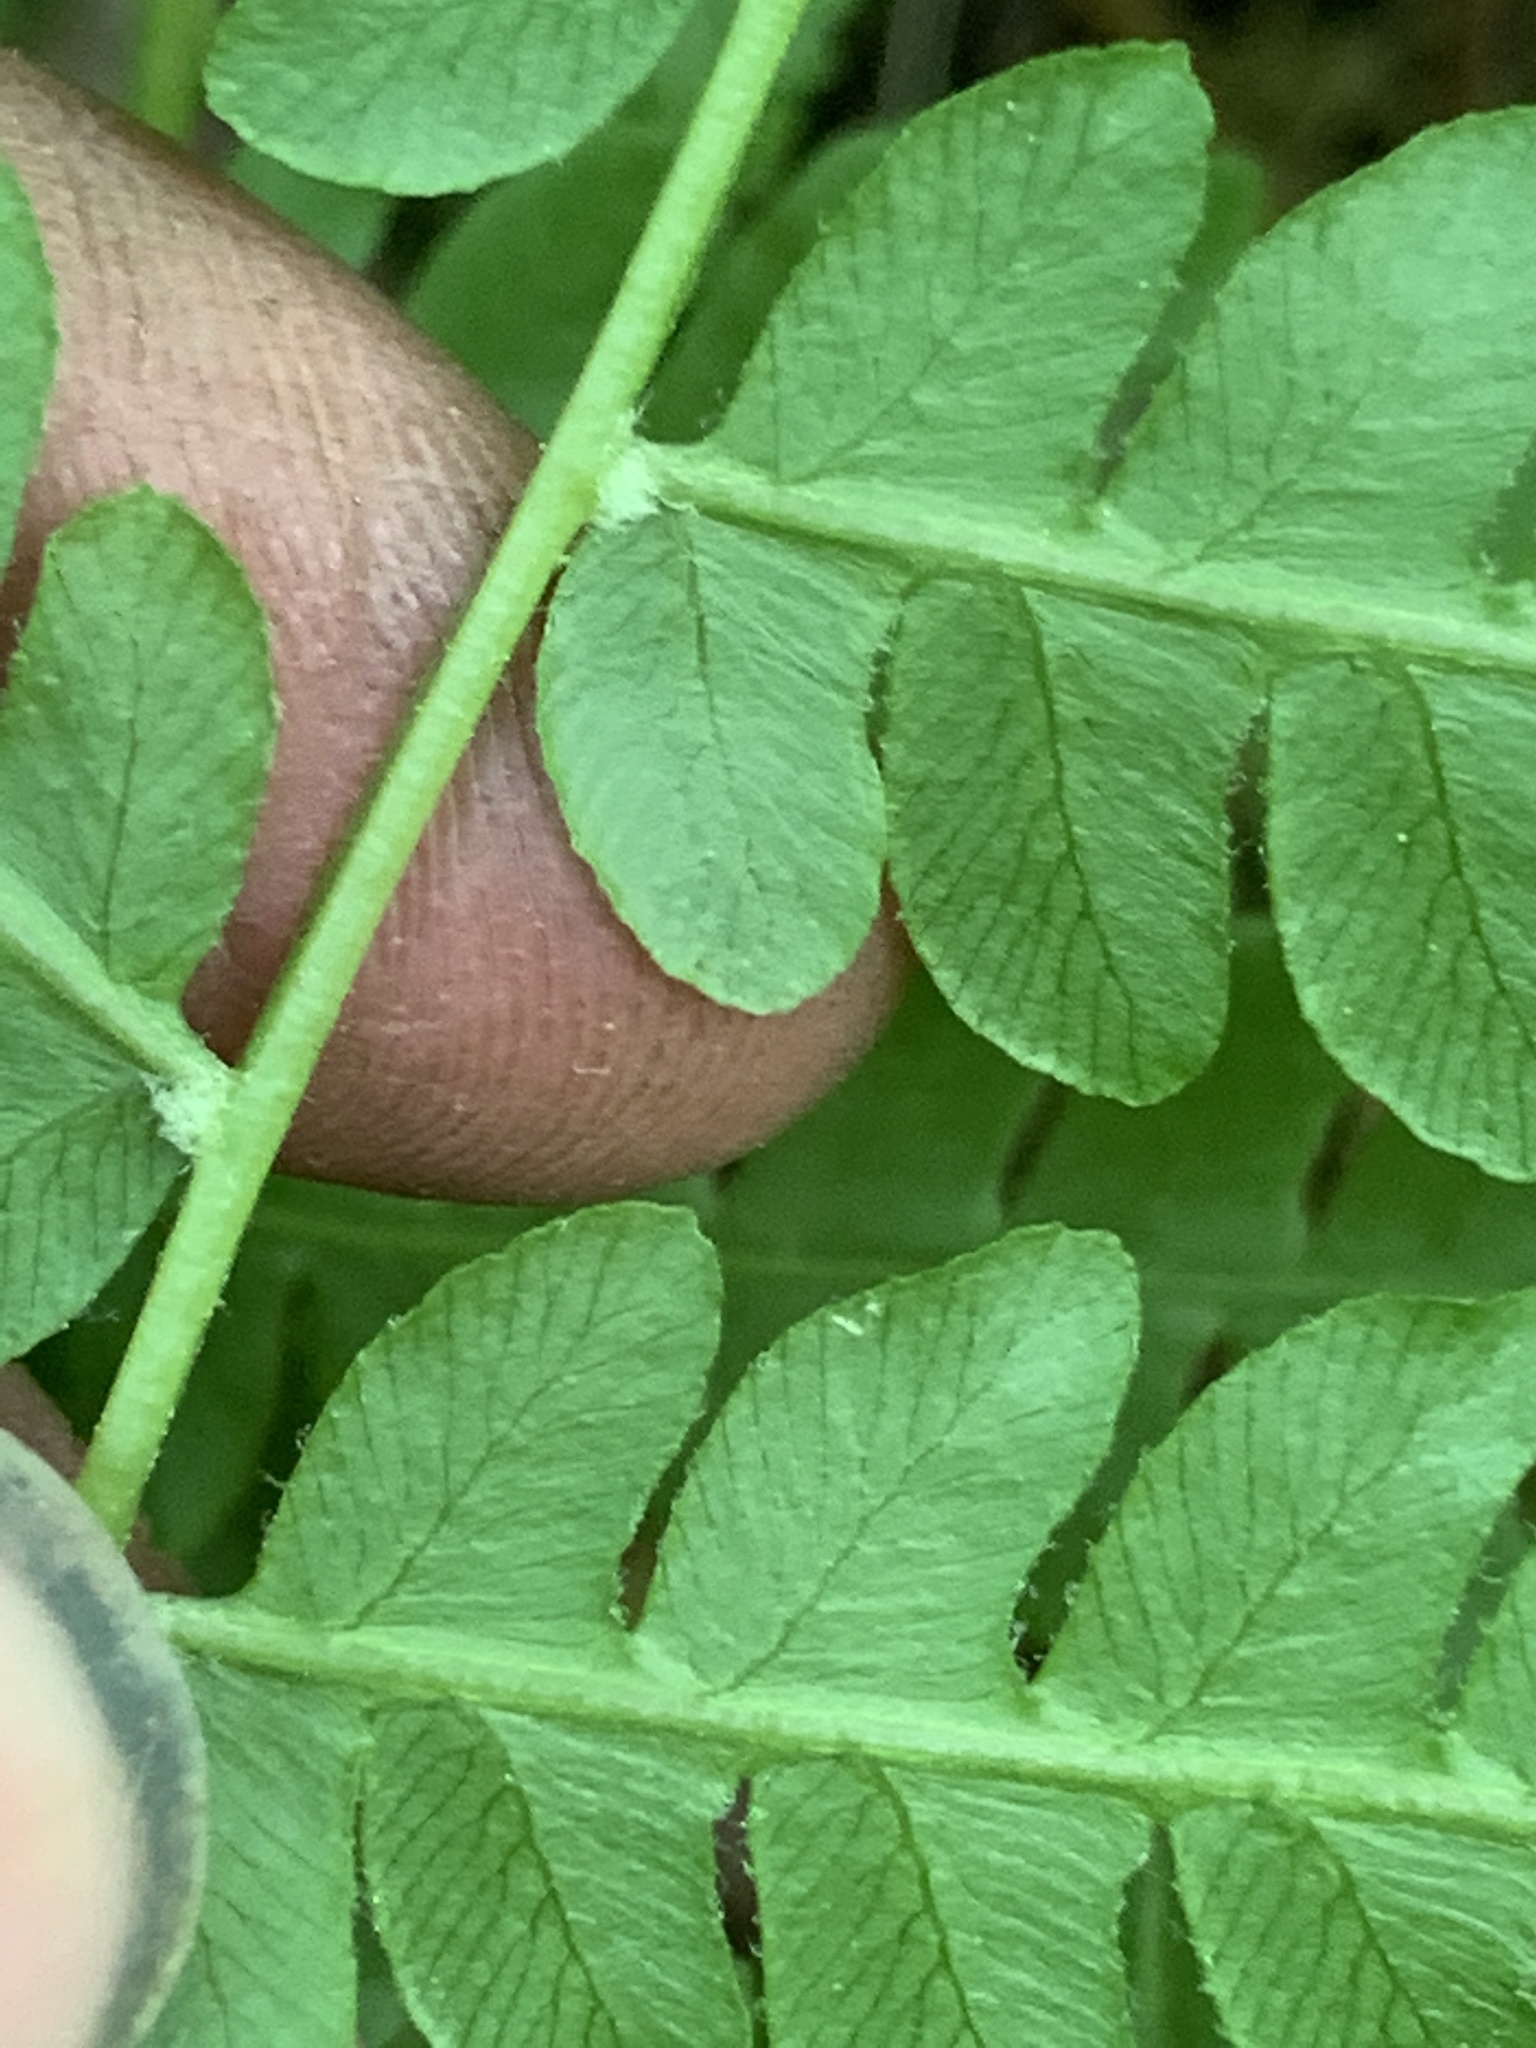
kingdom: Plantae
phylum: Tracheophyta
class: Polypodiopsida
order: Osmundales
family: Osmundaceae
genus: Osmundastrum
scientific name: Osmundastrum cinnamomeum
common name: Cinnamon fern
